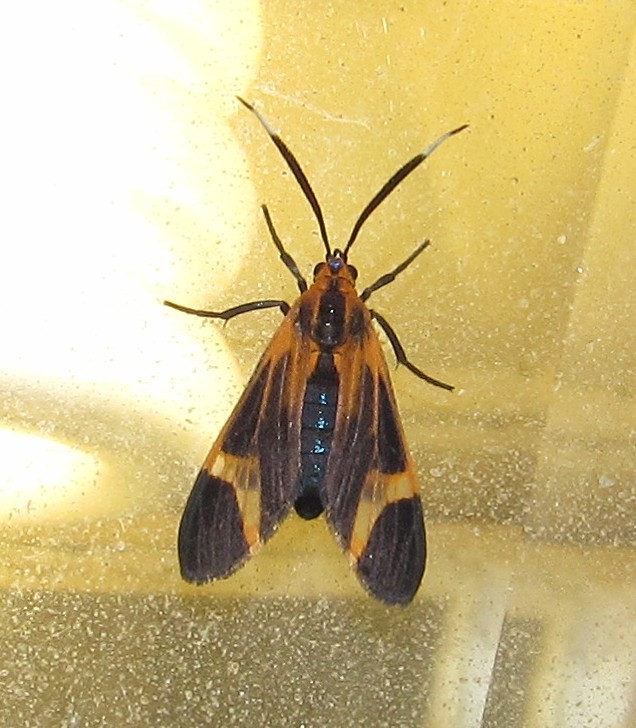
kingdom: Animalia
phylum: Arthropoda
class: Insecta
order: Lepidoptera
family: Erebidae
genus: Dycladia
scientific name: Dycladia lucetius
